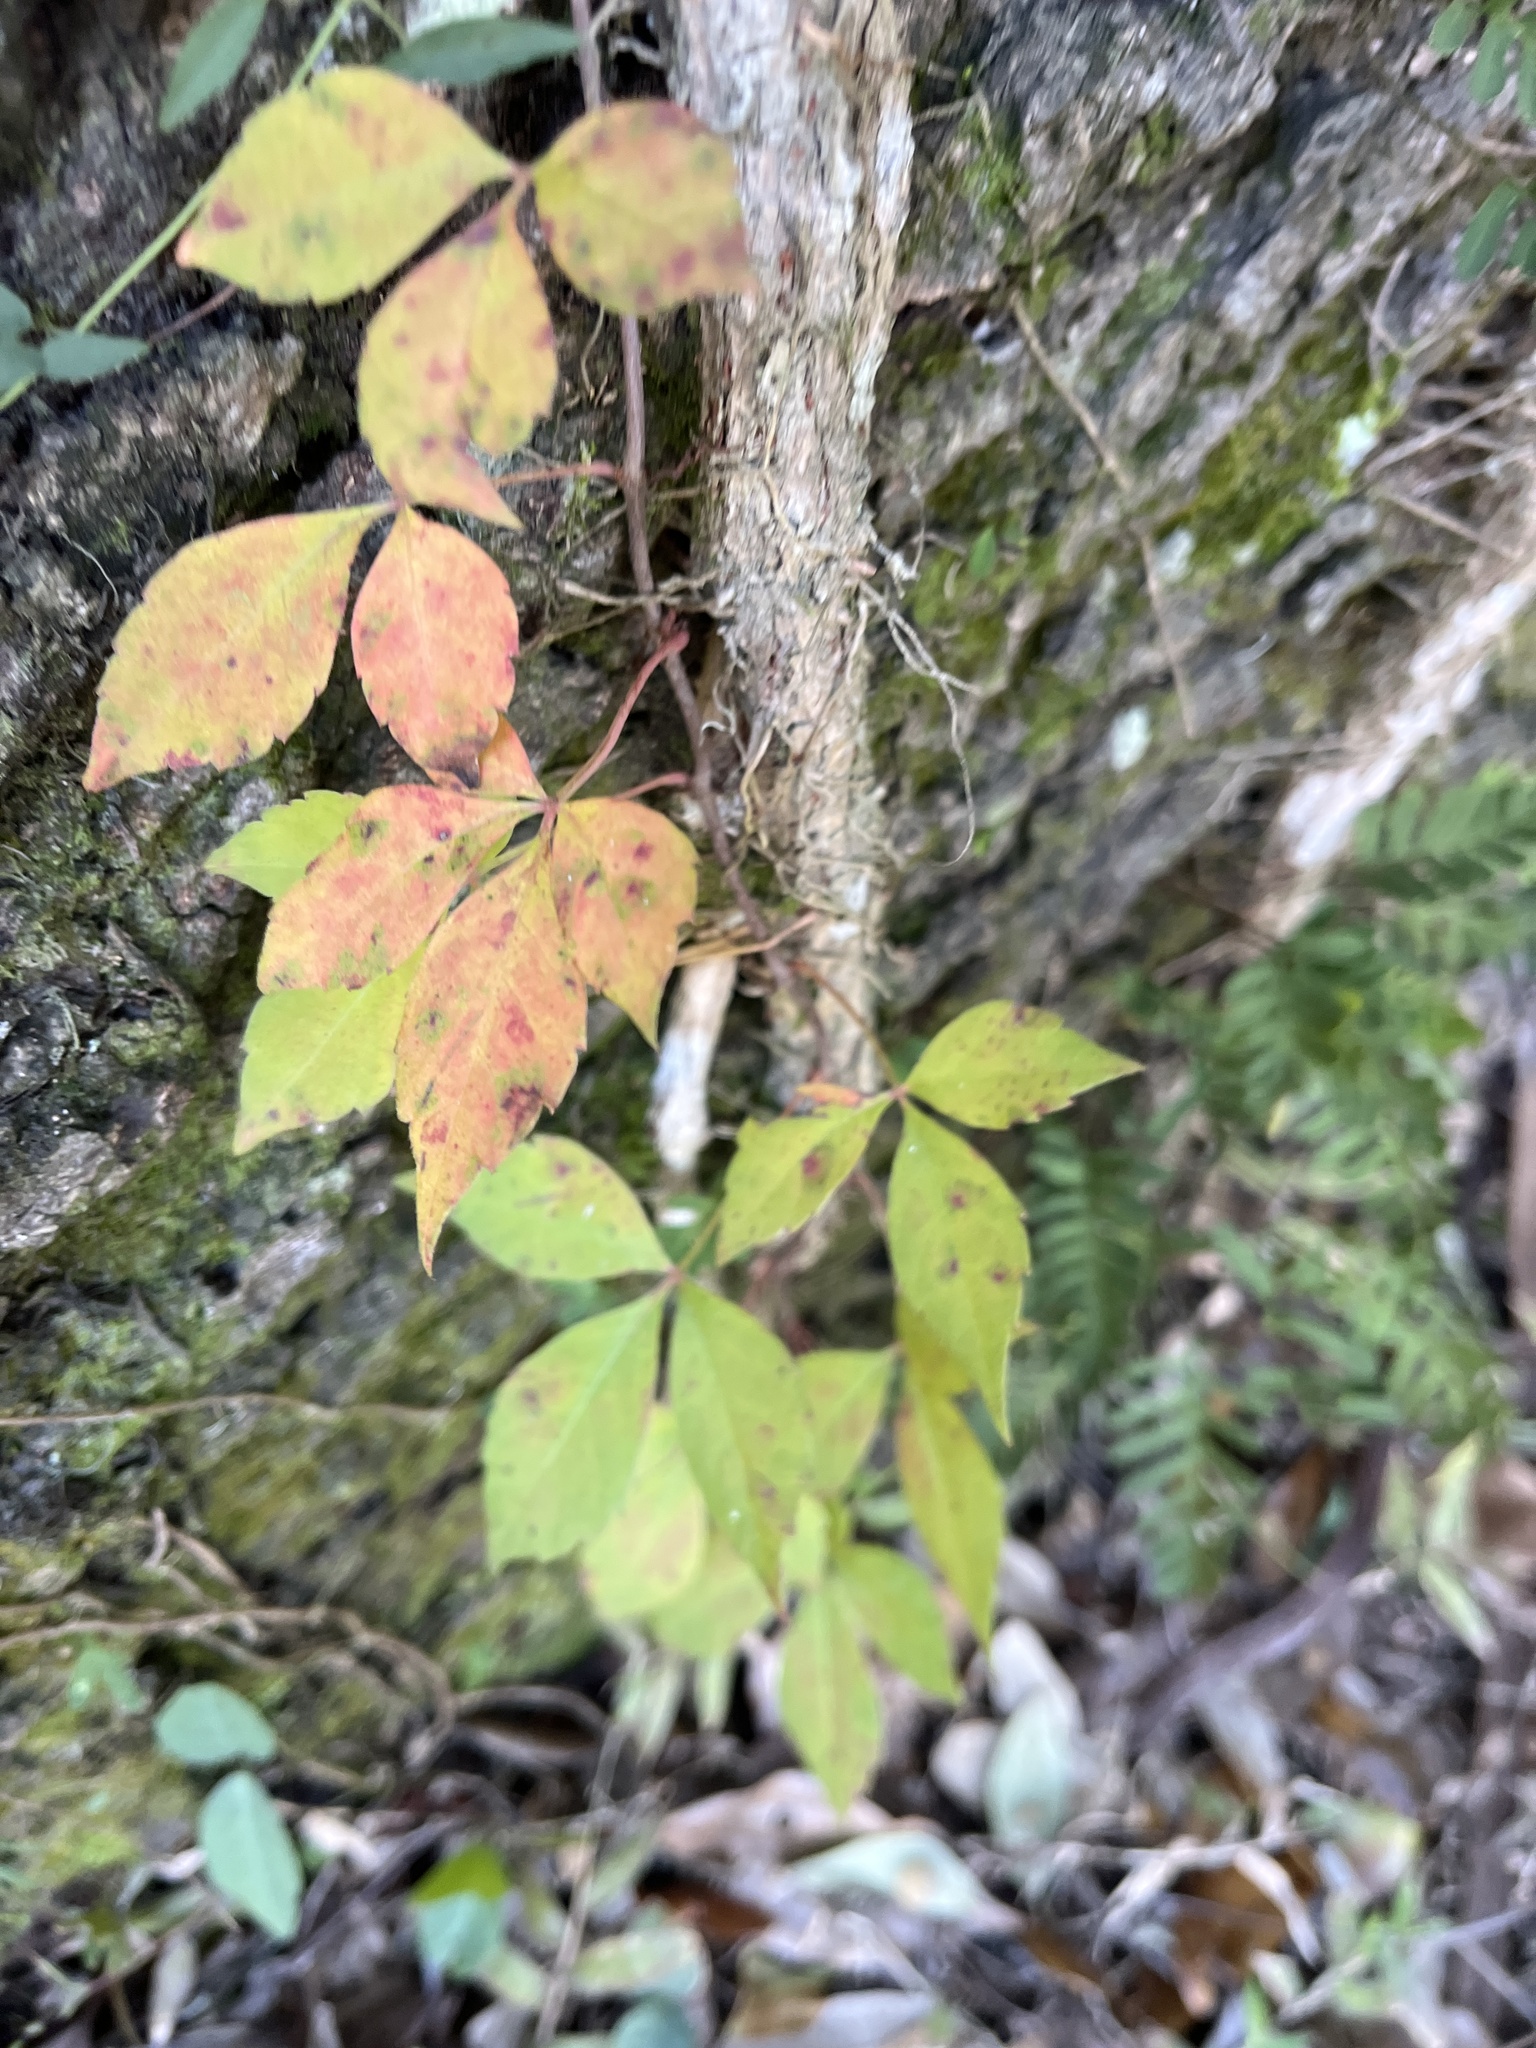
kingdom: Plantae
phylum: Tracheophyta
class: Magnoliopsida
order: Vitales
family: Vitaceae
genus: Parthenocissus
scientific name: Parthenocissus quinquefolia
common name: Virginia-creeper
